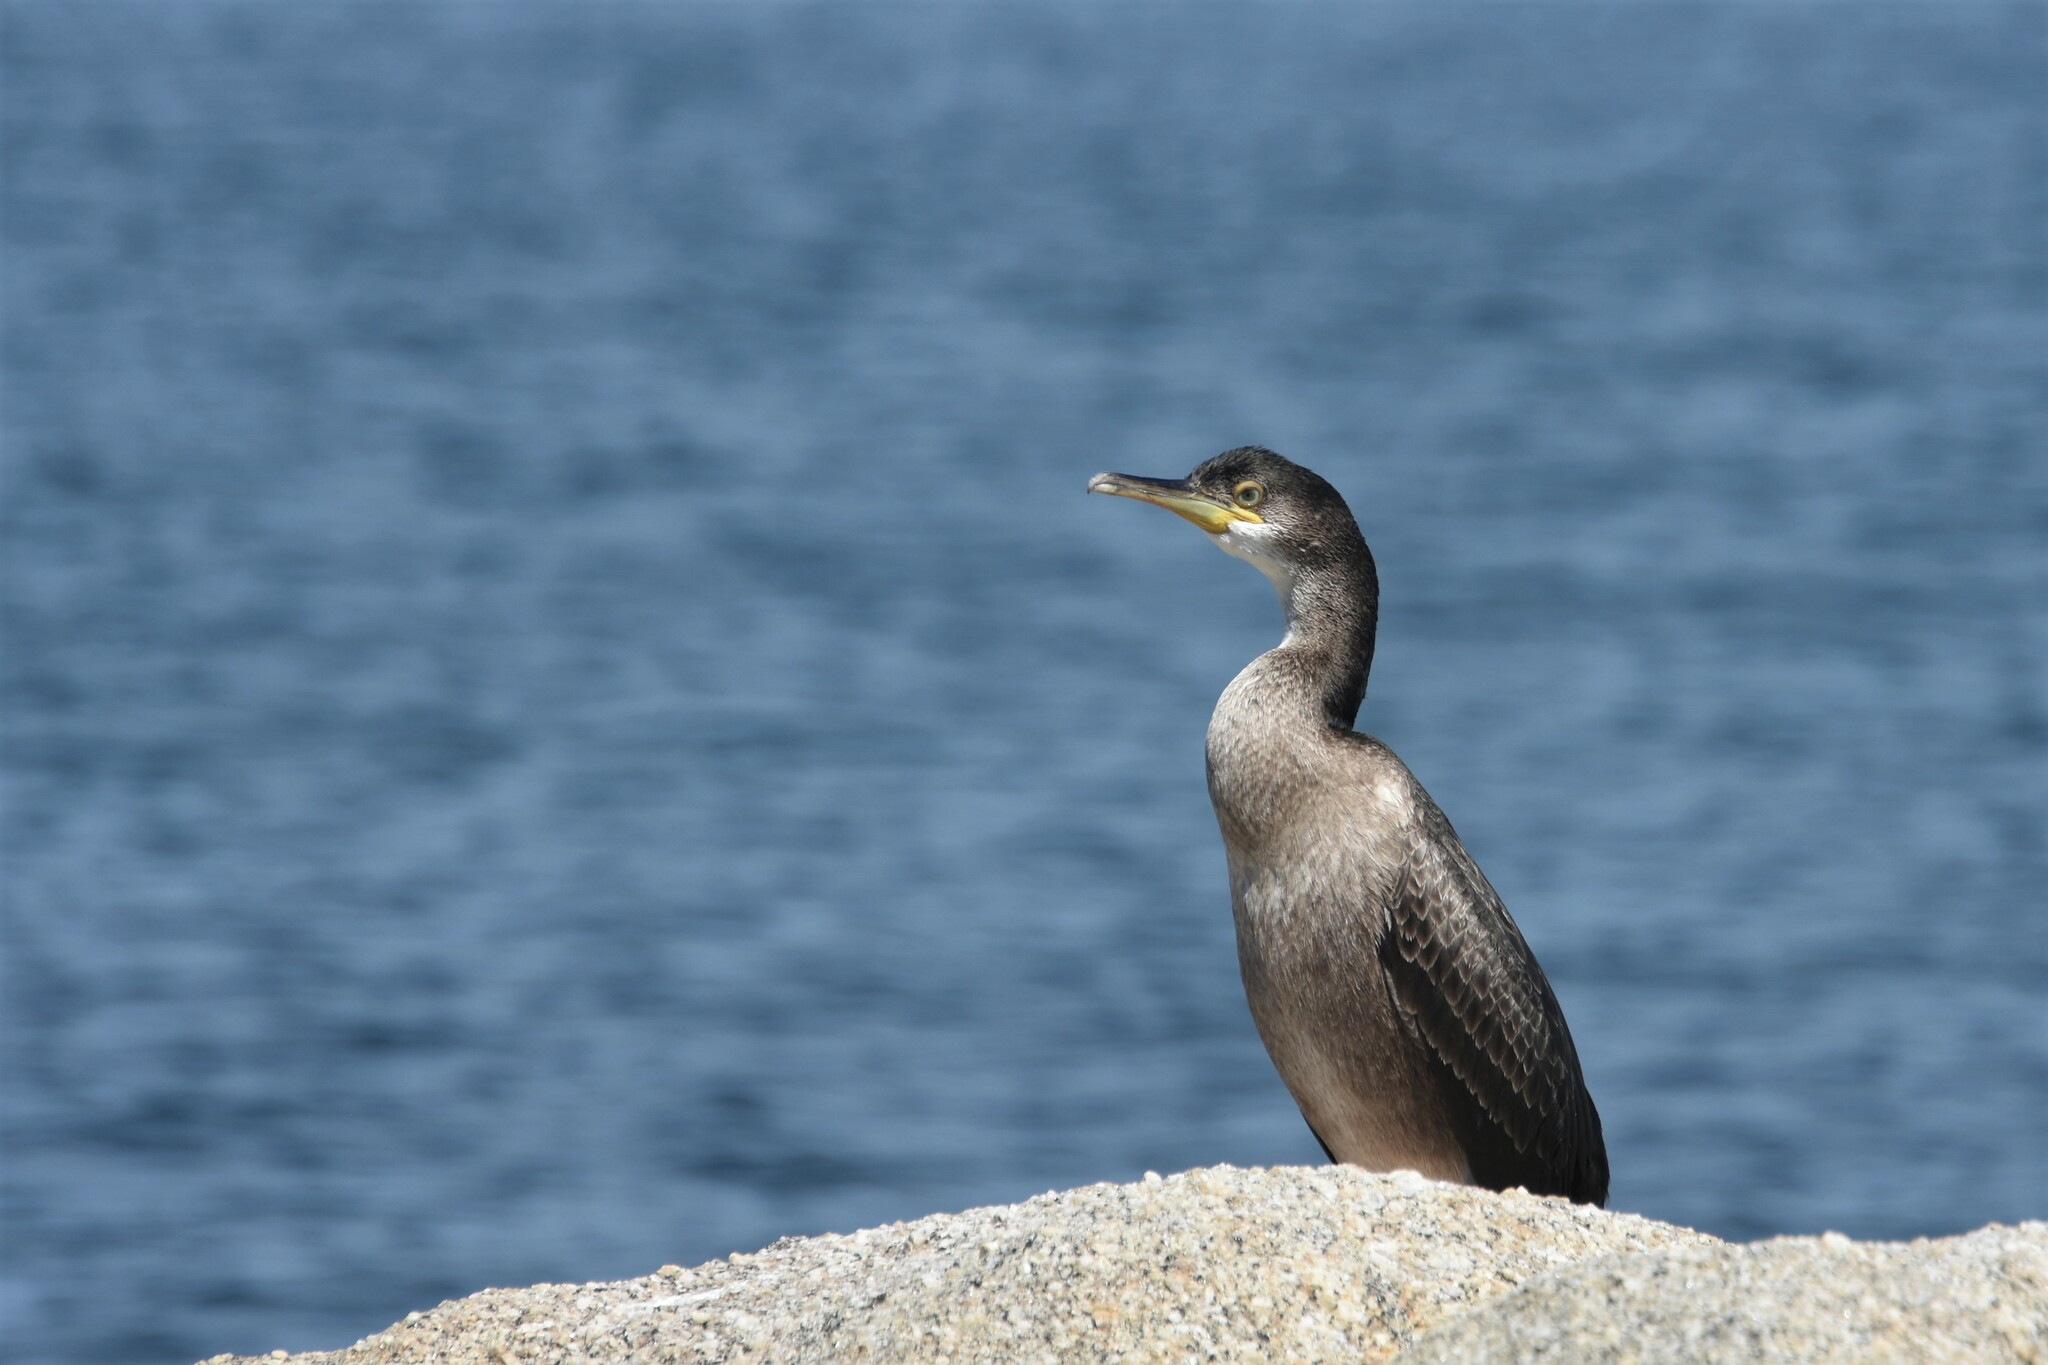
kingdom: Animalia
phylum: Chordata
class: Aves
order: Suliformes
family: Phalacrocoracidae
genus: Phalacrocorax
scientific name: Phalacrocorax aristotelis
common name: European shag
